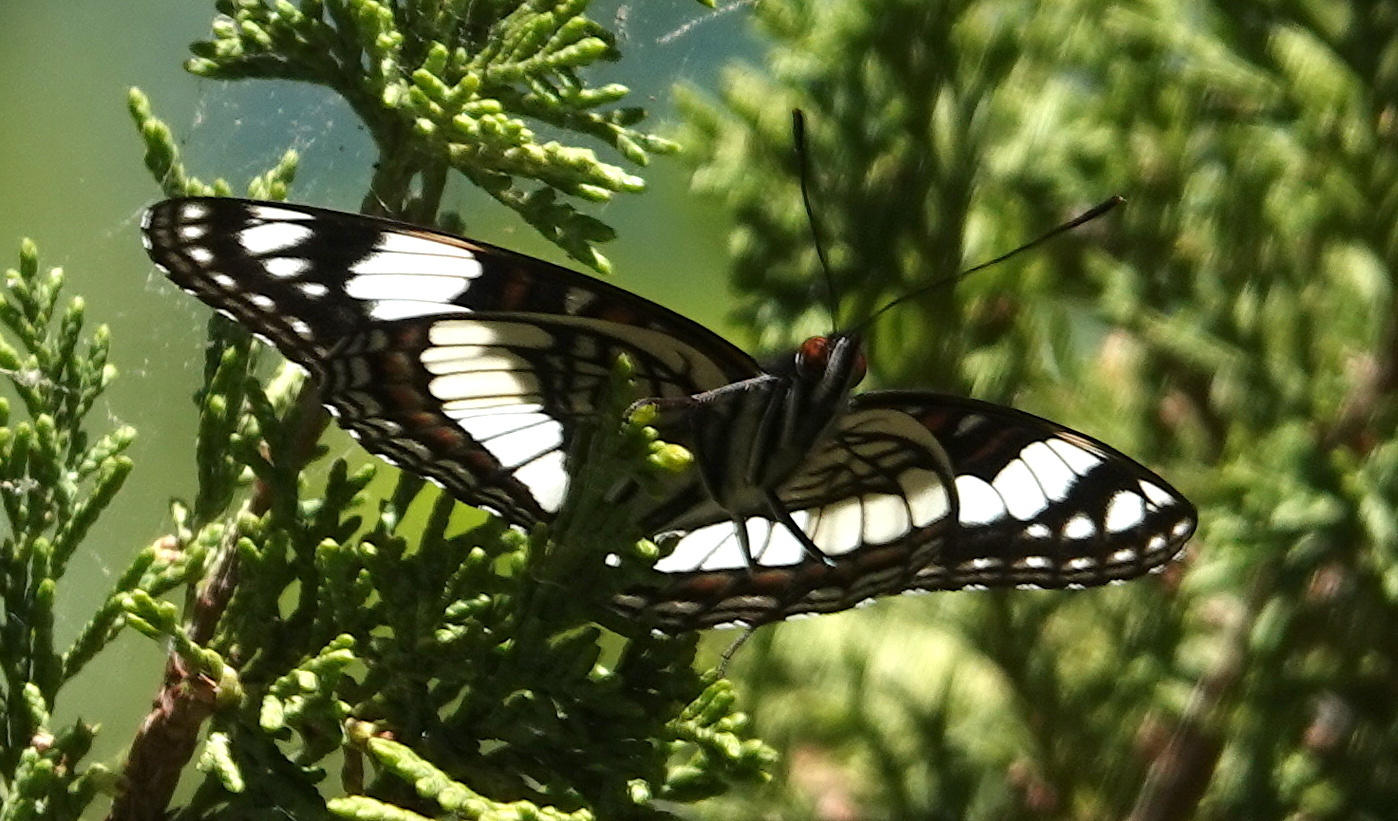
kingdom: Animalia
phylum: Arthropoda
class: Insecta
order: Lepidoptera
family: Nymphalidae
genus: Limenitis
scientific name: Limenitis weidemeyerii
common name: Weidemeyer's admiral
